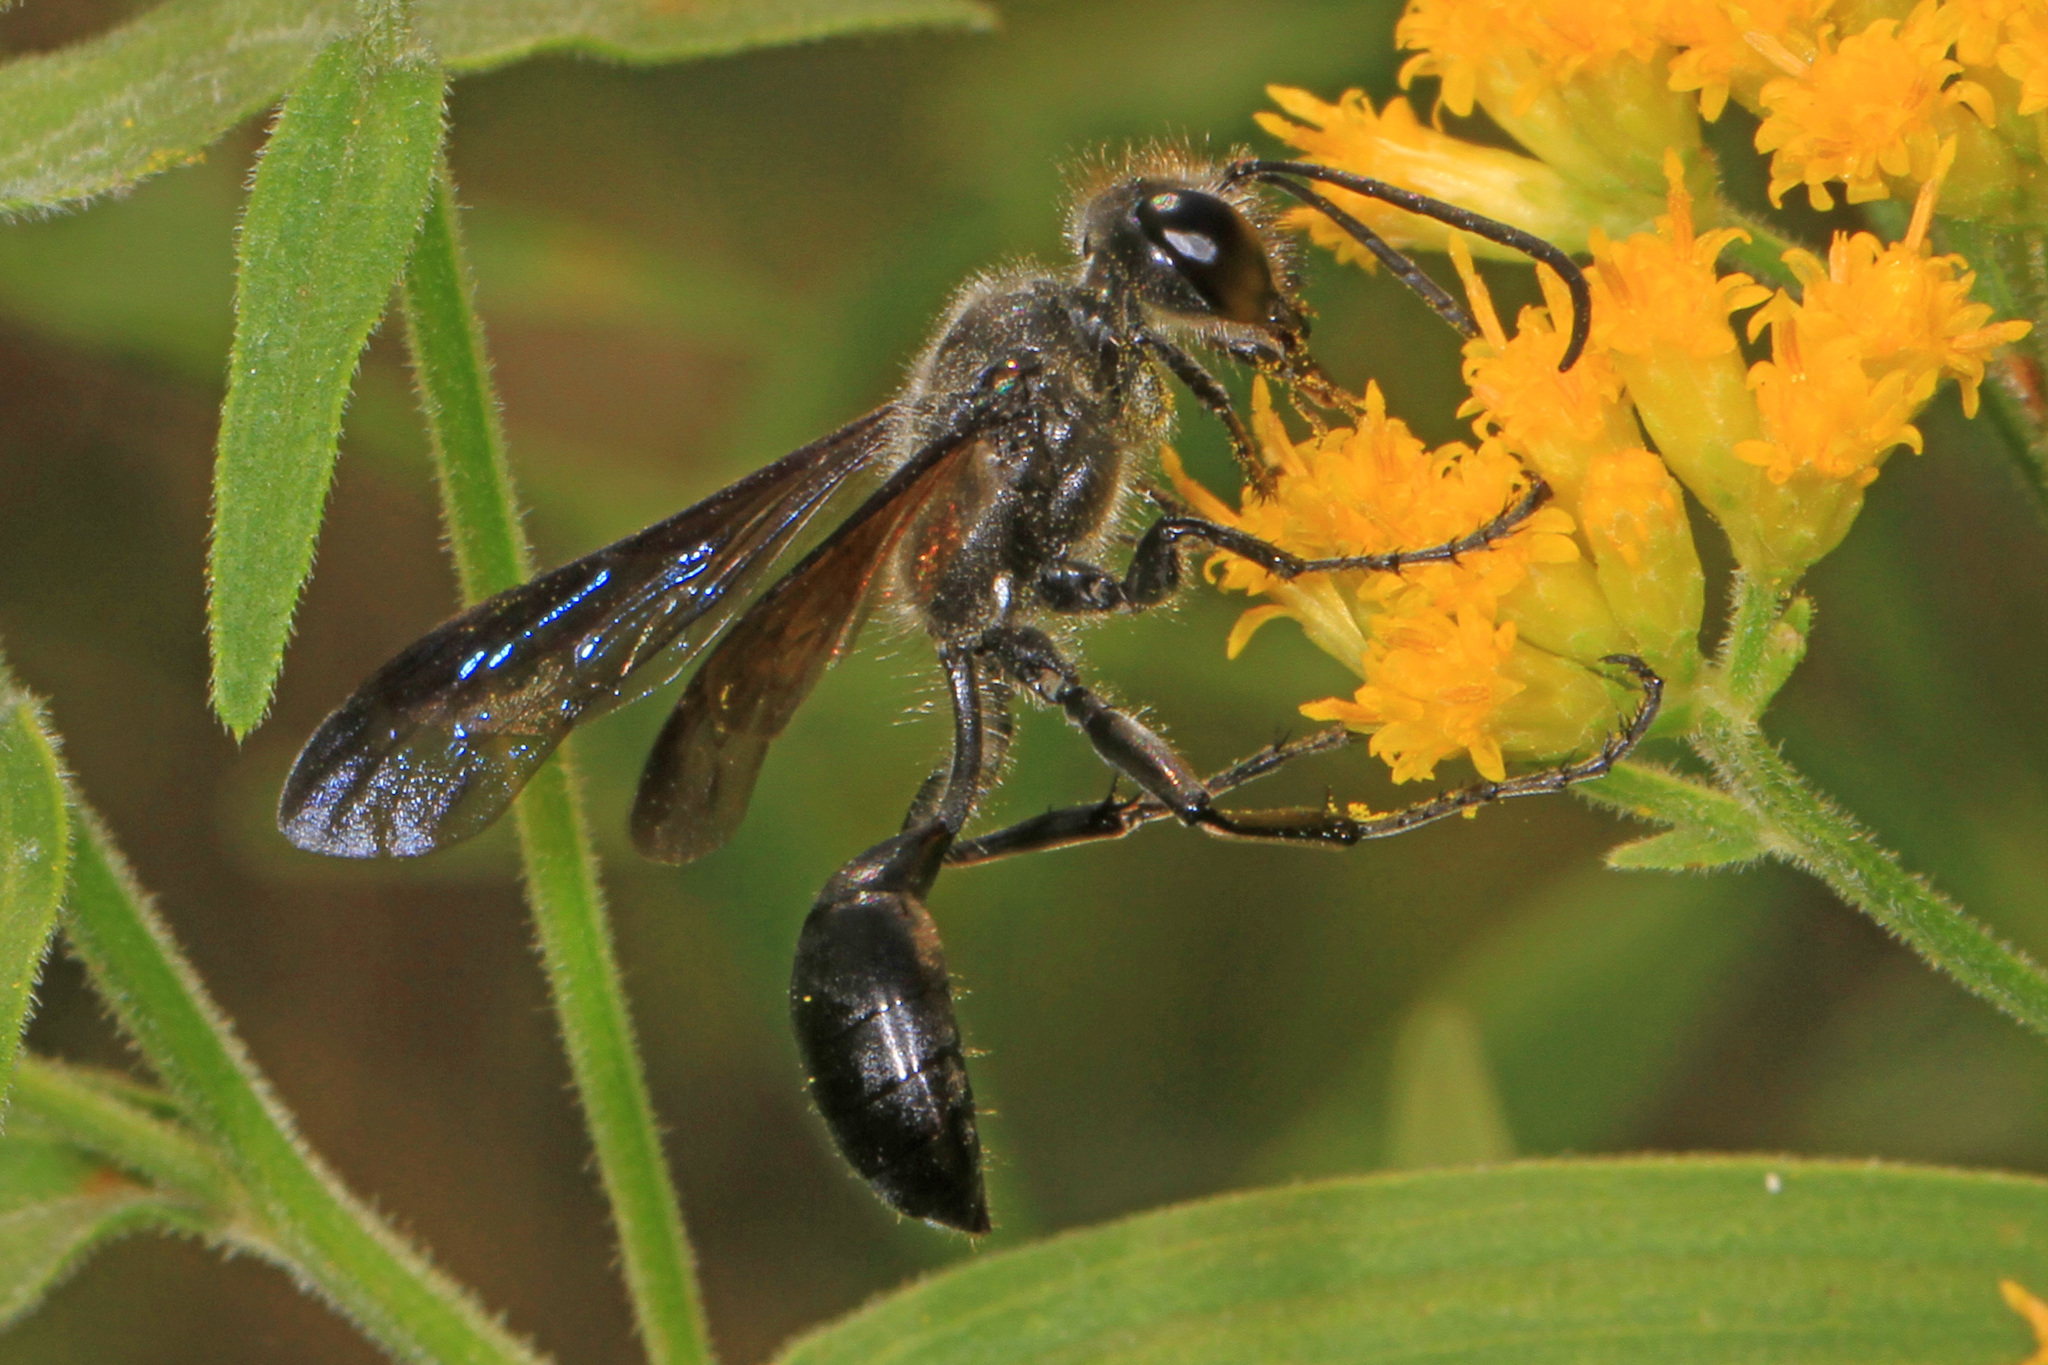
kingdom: Animalia
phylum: Arthropoda
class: Insecta
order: Hymenoptera
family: Sphecidae
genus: Isodontia
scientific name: Isodontia mexicana
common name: Mud dauber
